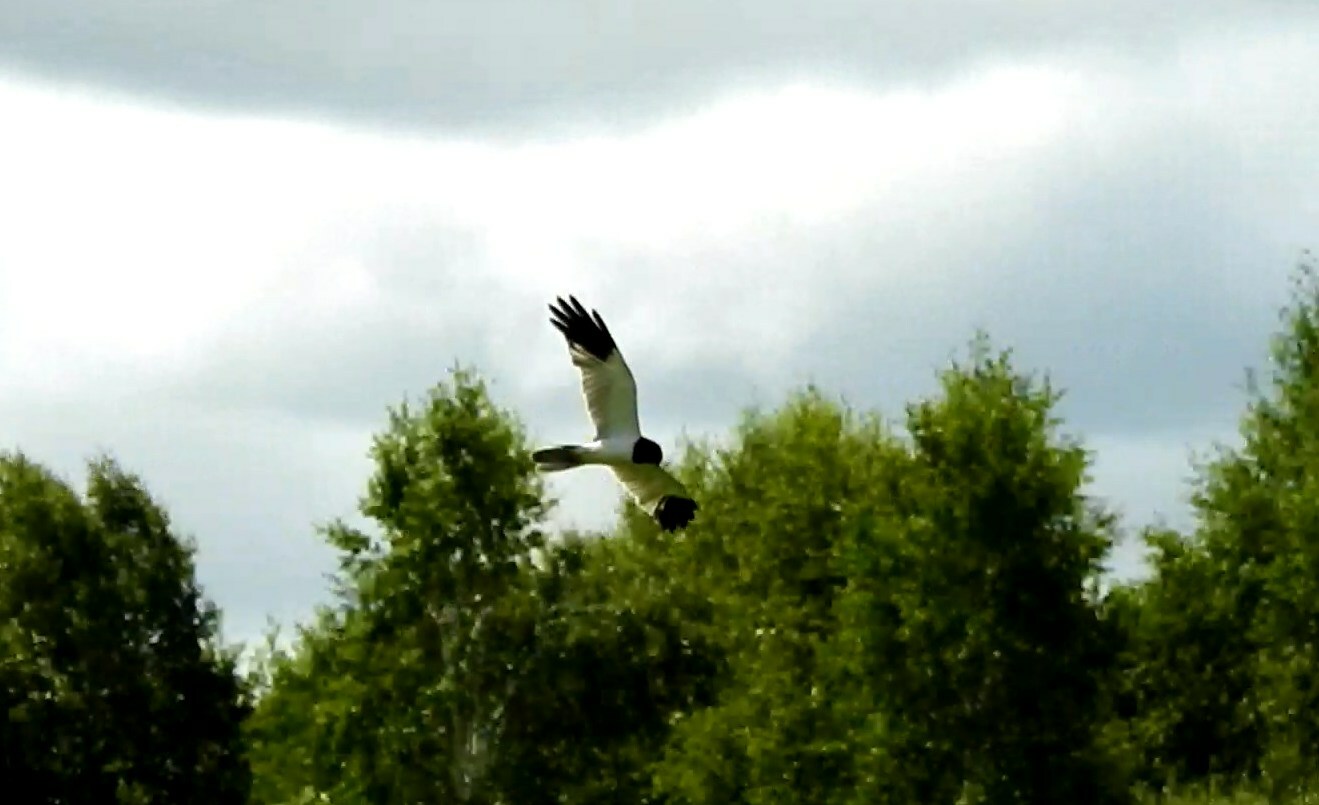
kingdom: Animalia
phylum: Chordata
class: Aves
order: Accipitriformes
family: Accipitridae
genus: Circus
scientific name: Circus melanoleucos
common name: Pied harrier
